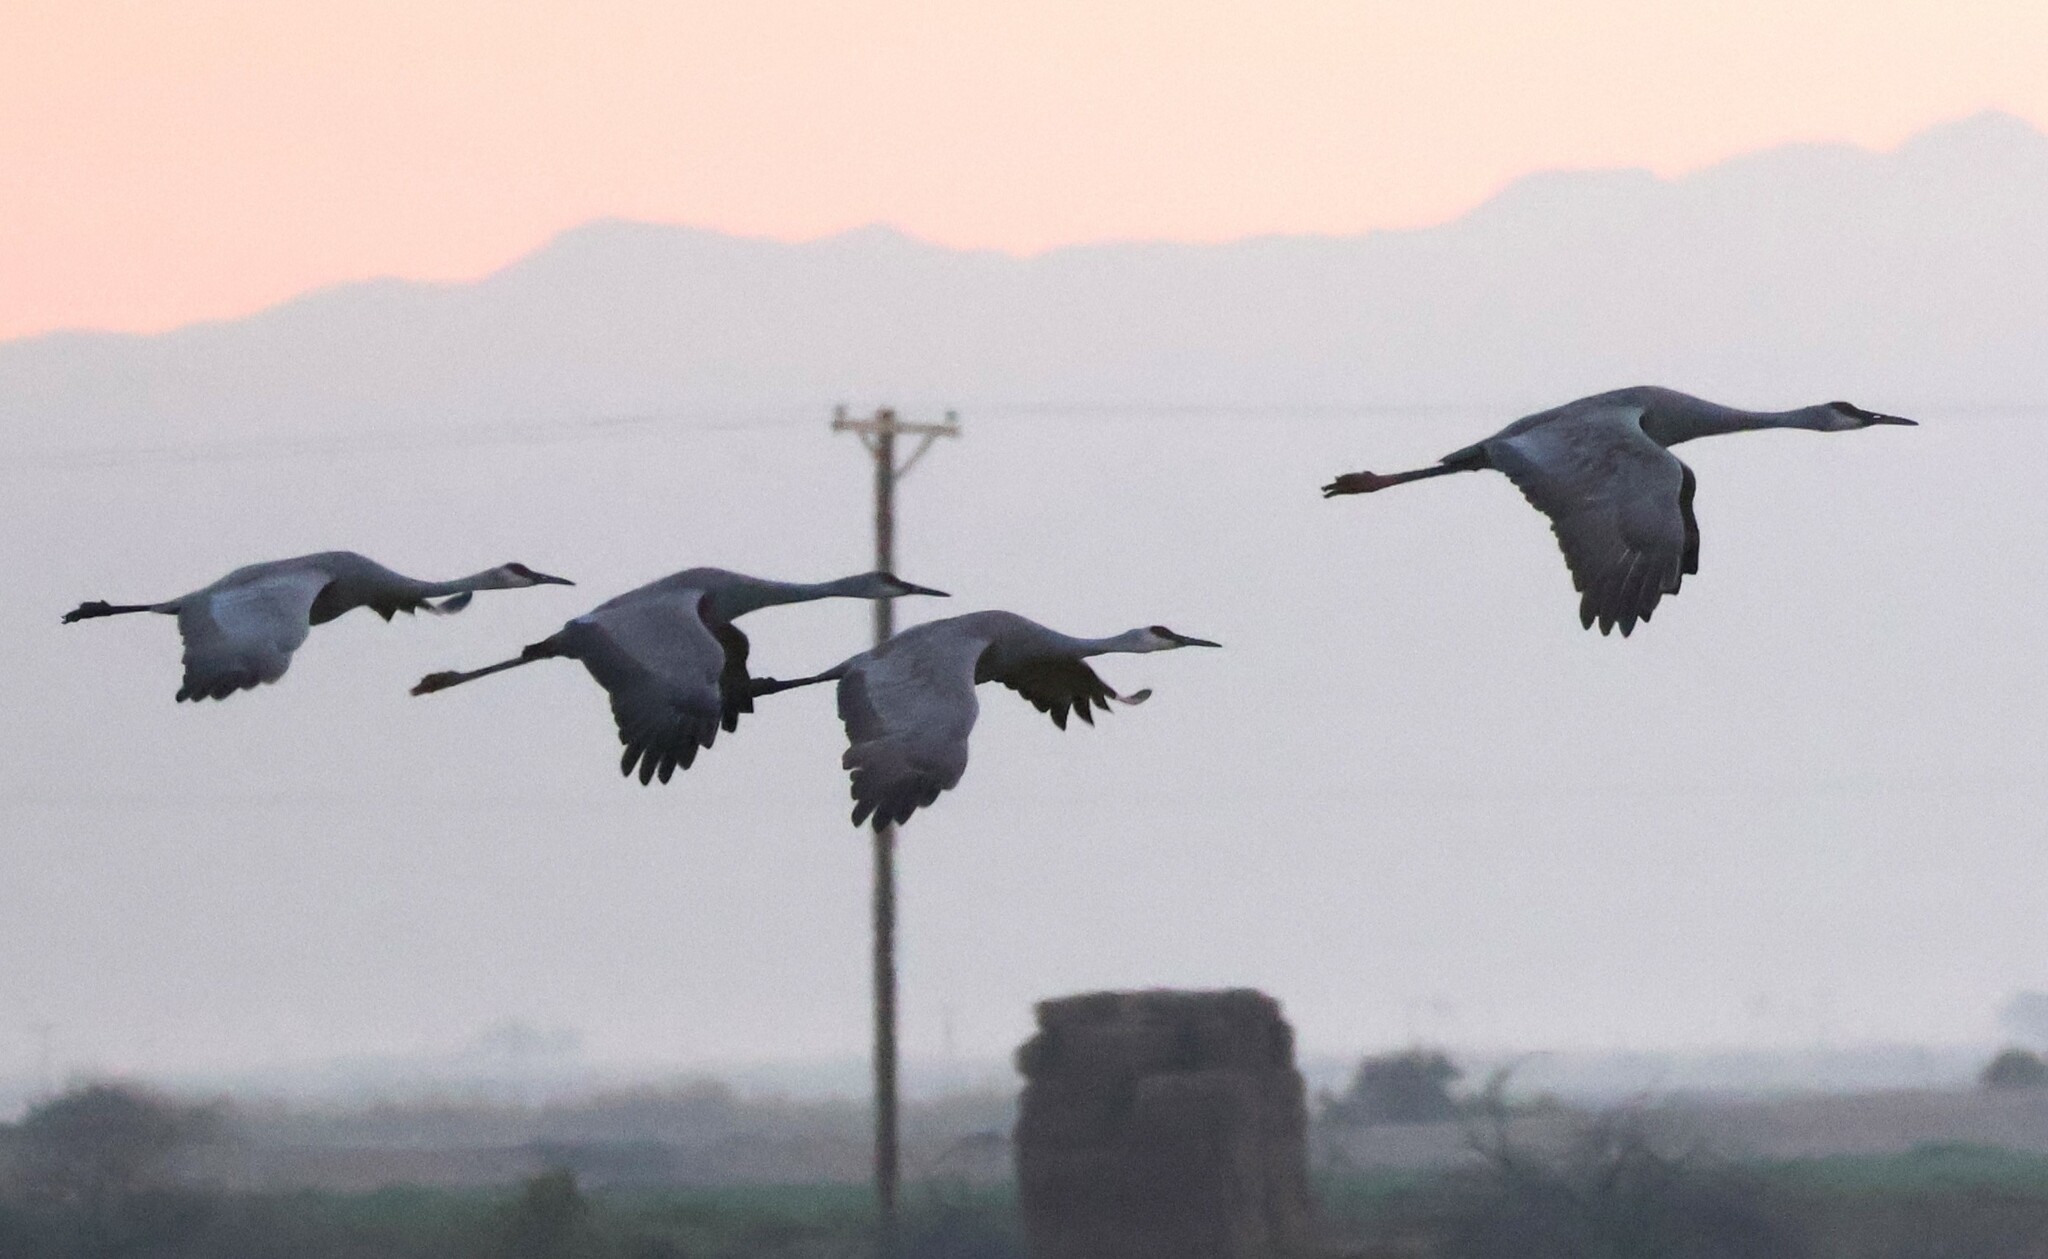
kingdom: Animalia
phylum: Chordata
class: Aves
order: Gruiformes
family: Gruidae
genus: Grus
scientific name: Grus canadensis
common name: Sandhill crane
